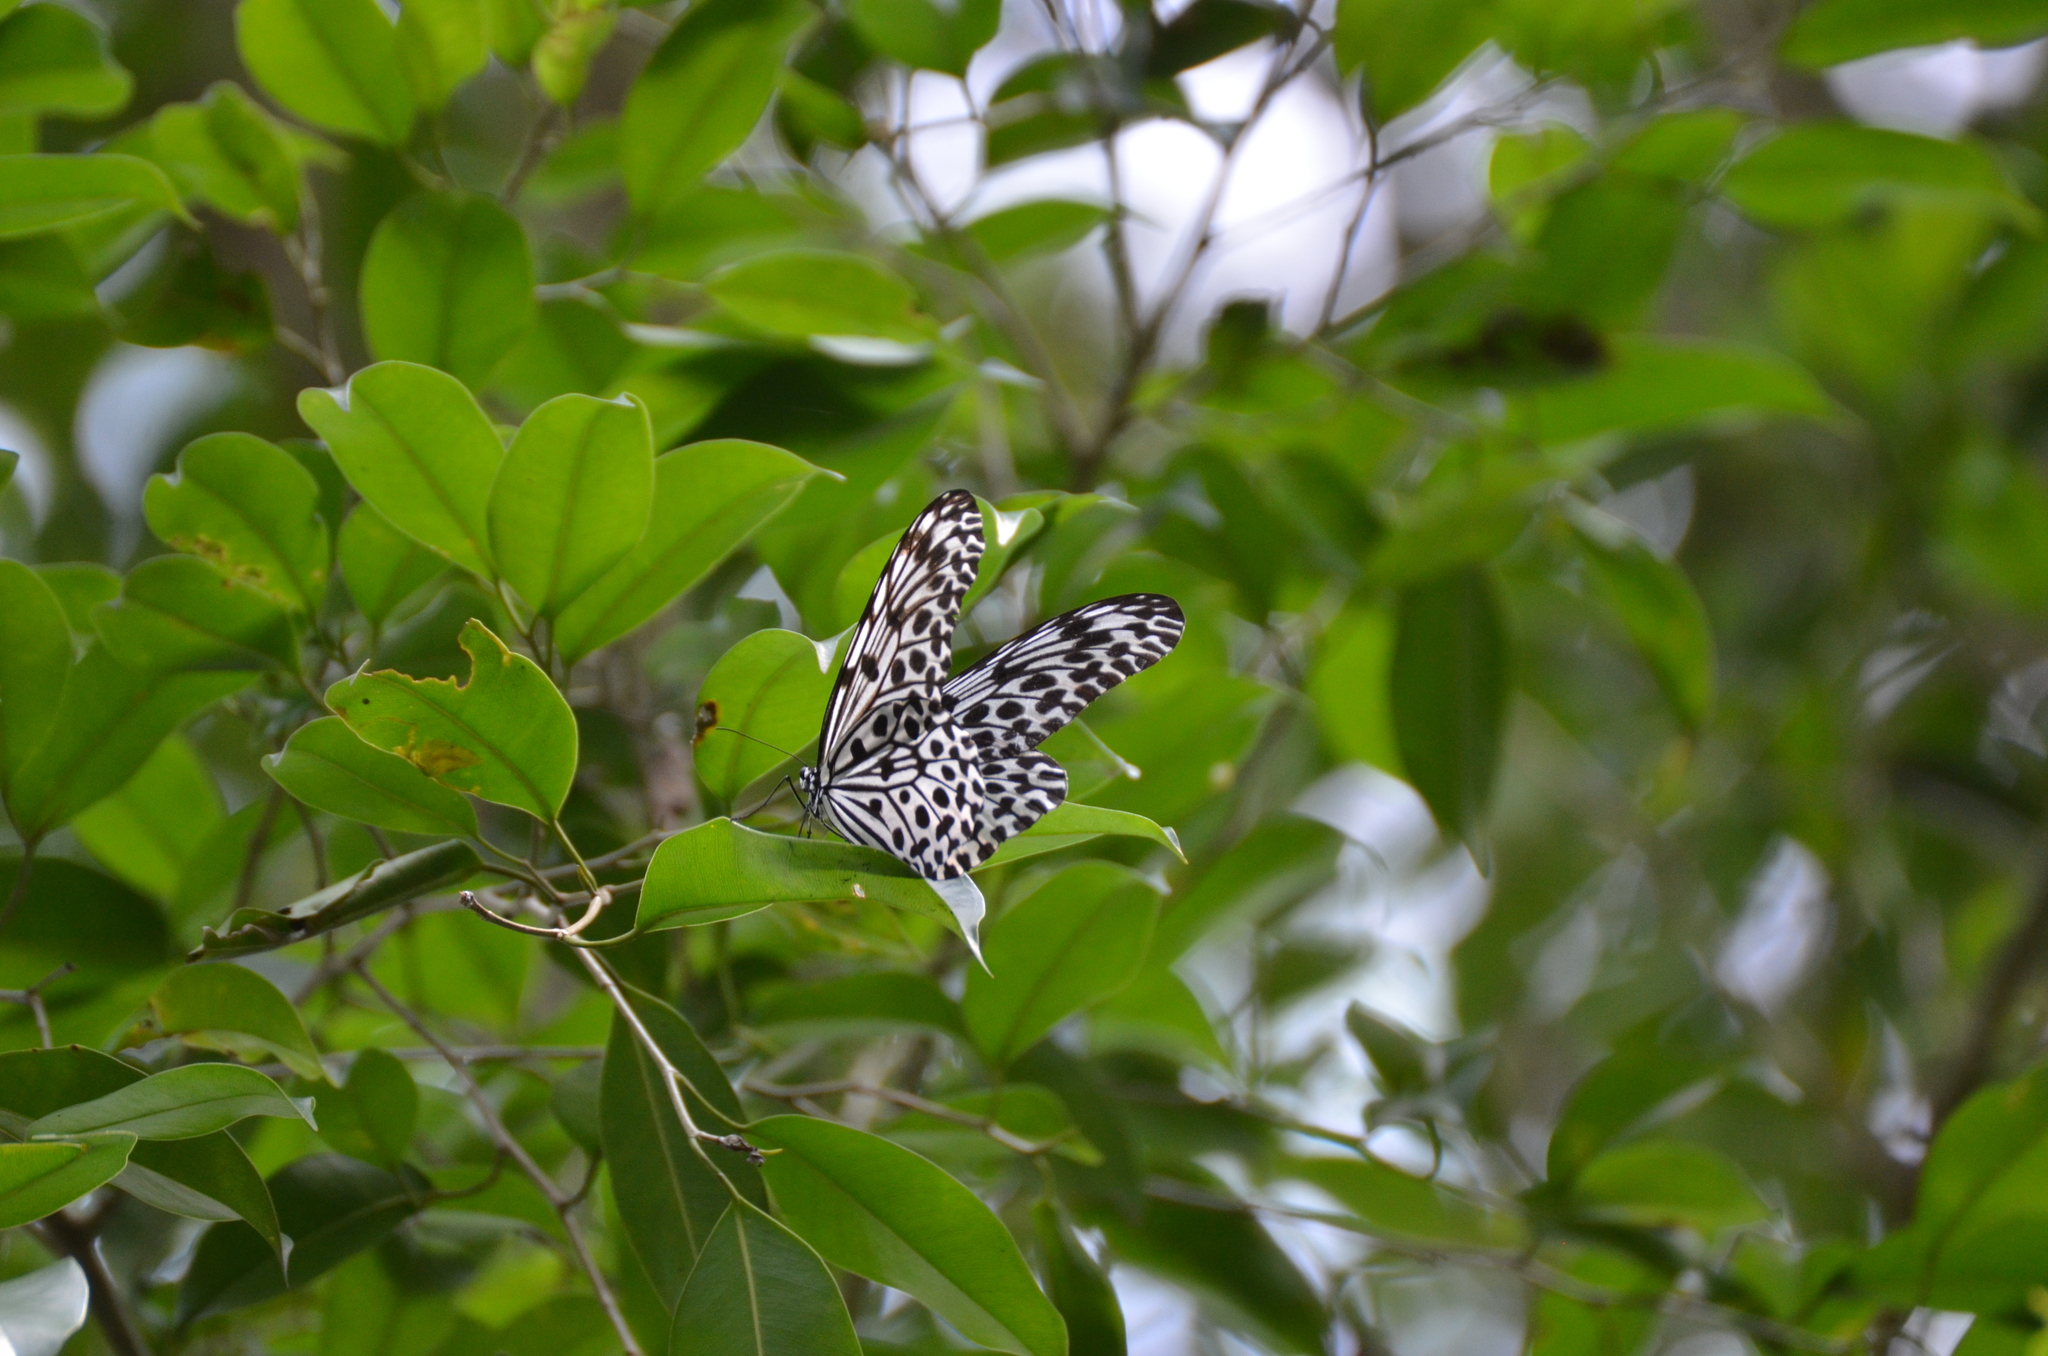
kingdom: Animalia
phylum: Arthropoda
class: Insecta
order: Lepidoptera
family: Nymphalidae
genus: Idea
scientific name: Idea stolli
